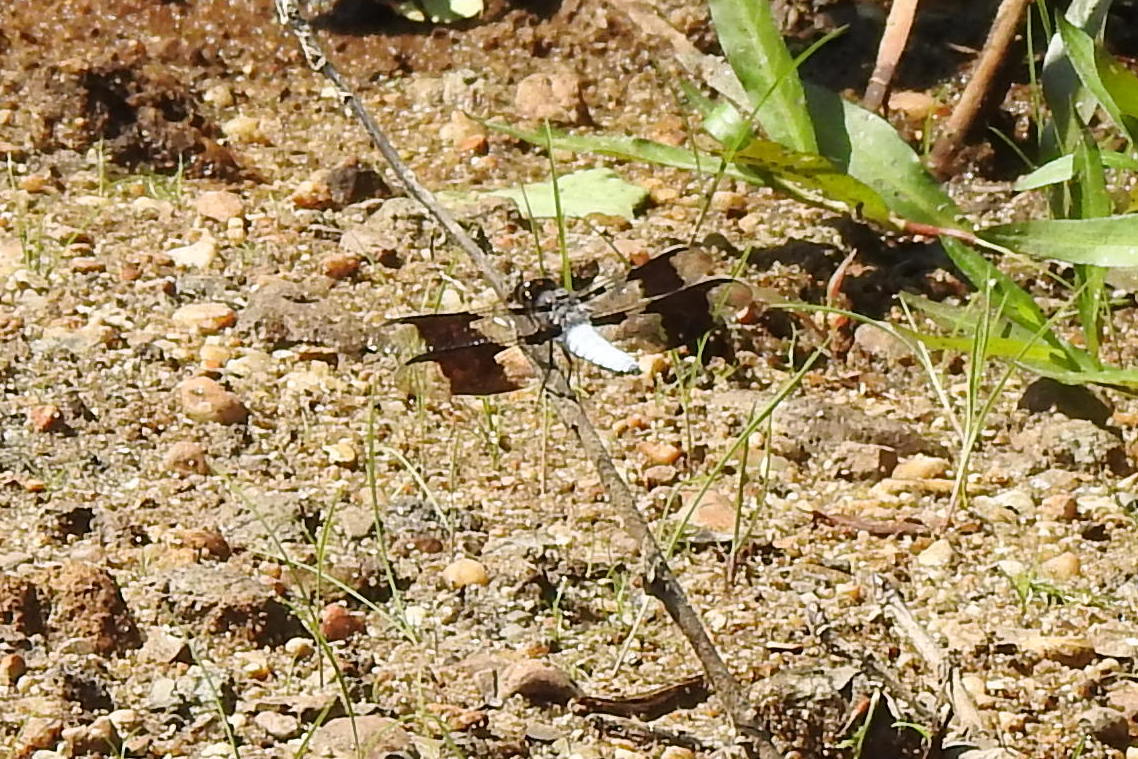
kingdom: Animalia
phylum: Arthropoda
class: Insecta
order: Odonata
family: Libellulidae
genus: Plathemis
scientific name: Plathemis lydia
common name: Common whitetail
